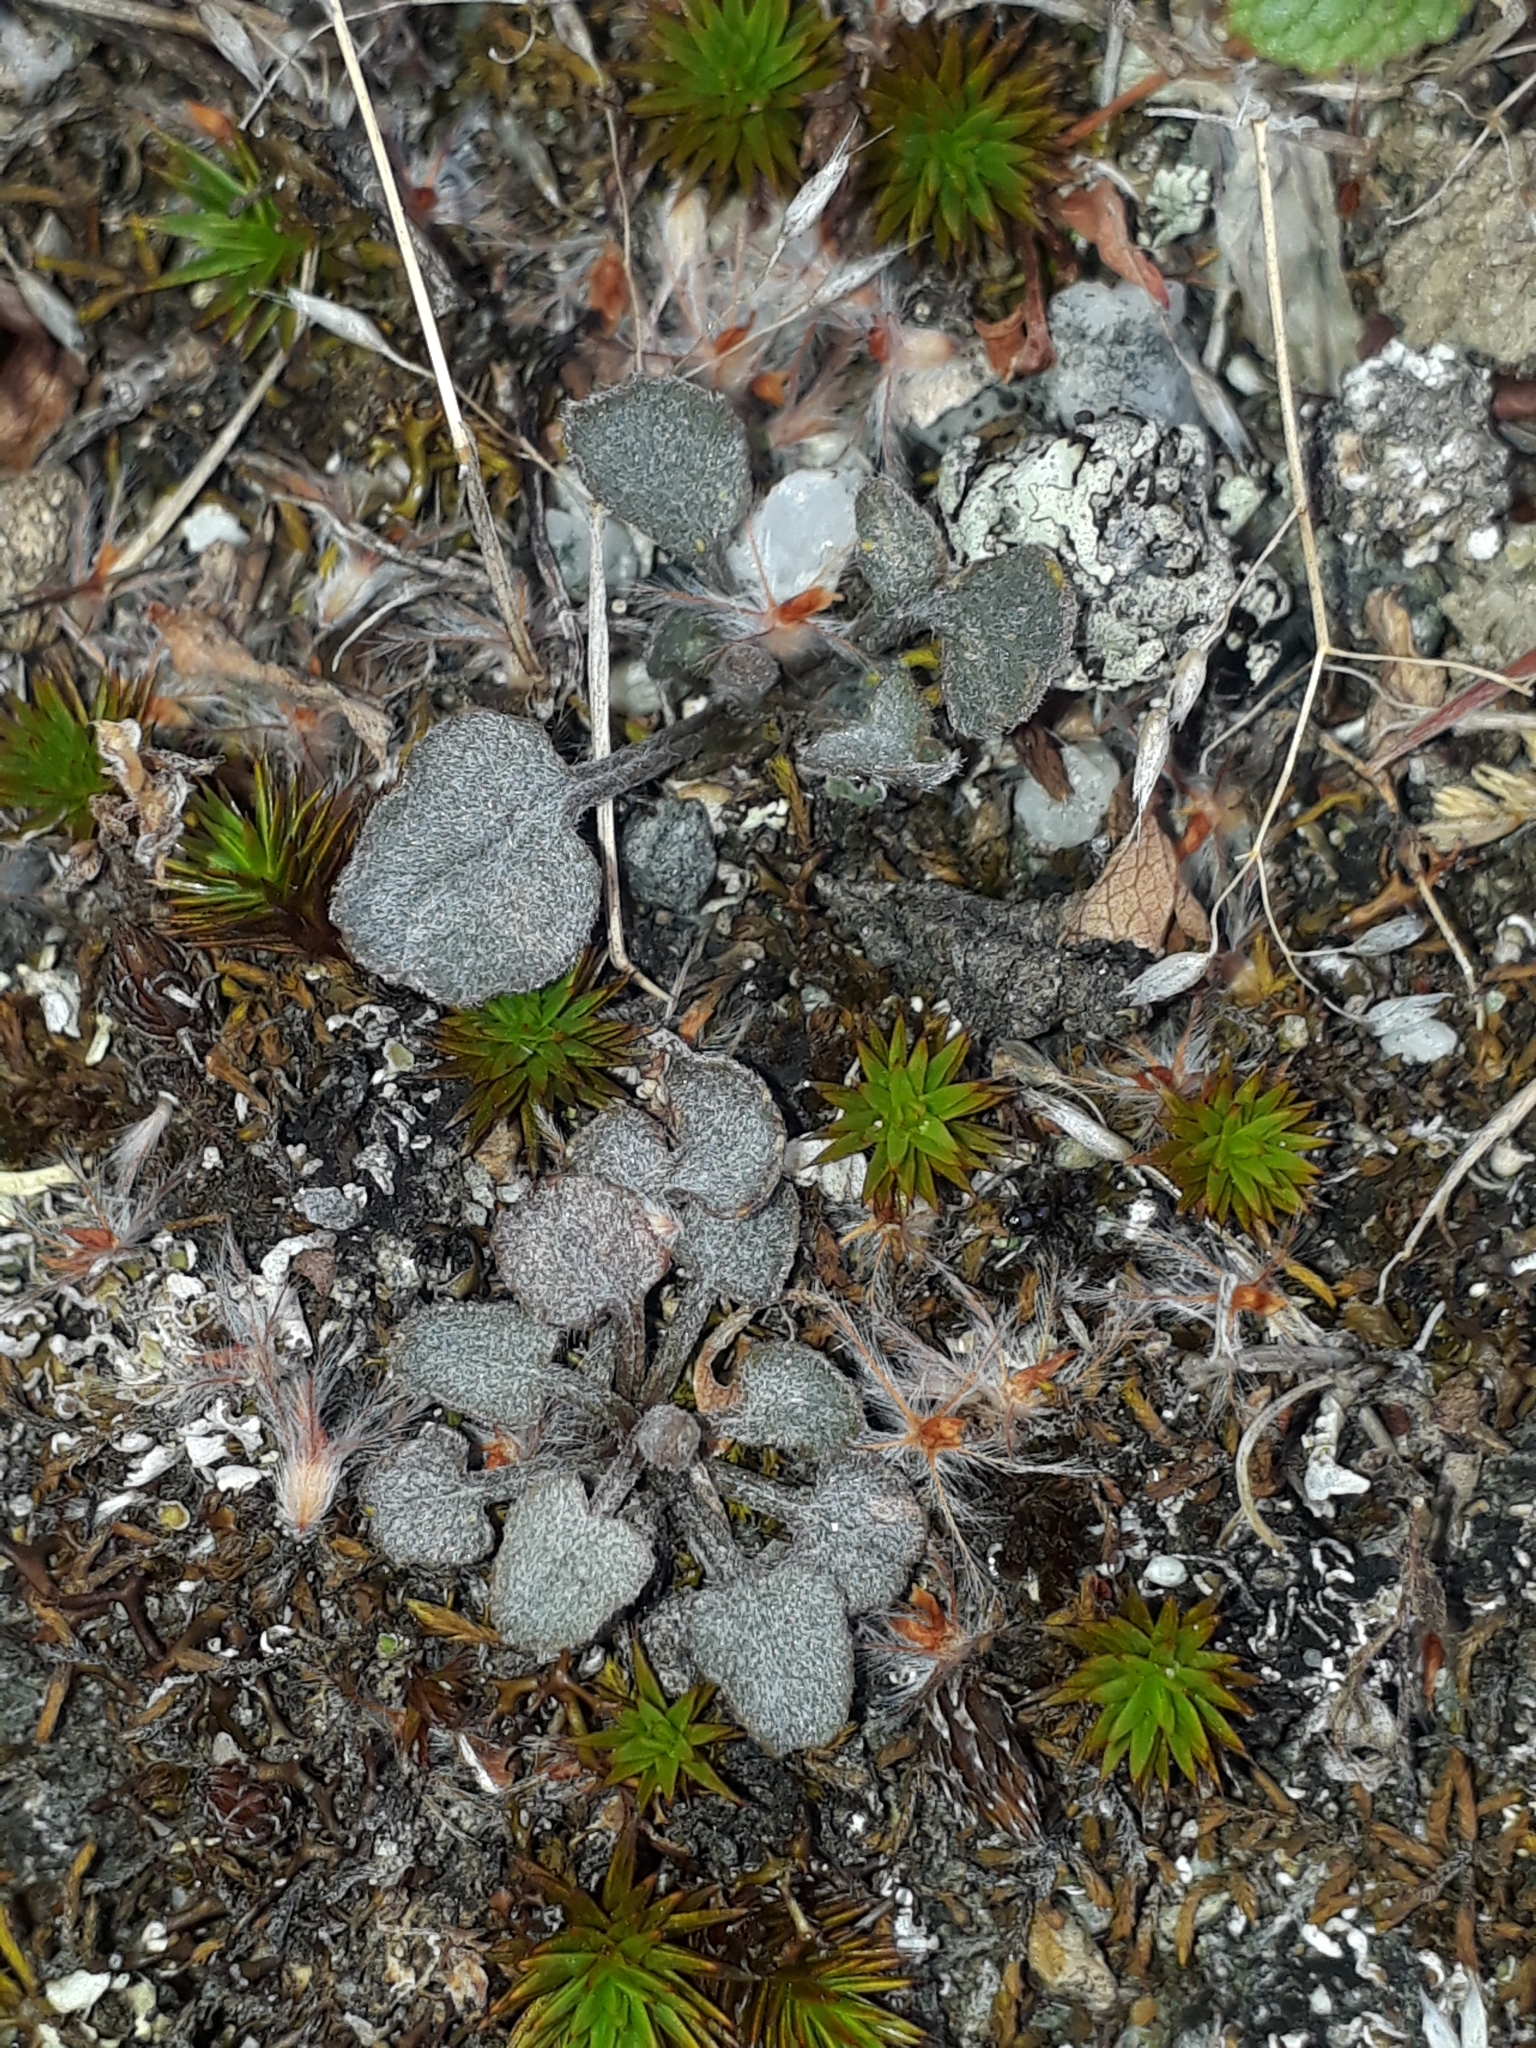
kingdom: Plantae
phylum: Tracheophyta
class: Magnoliopsida
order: Solanales
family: Convolvulaceae
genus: Convolvulus
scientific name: Convolvulus verecundus
